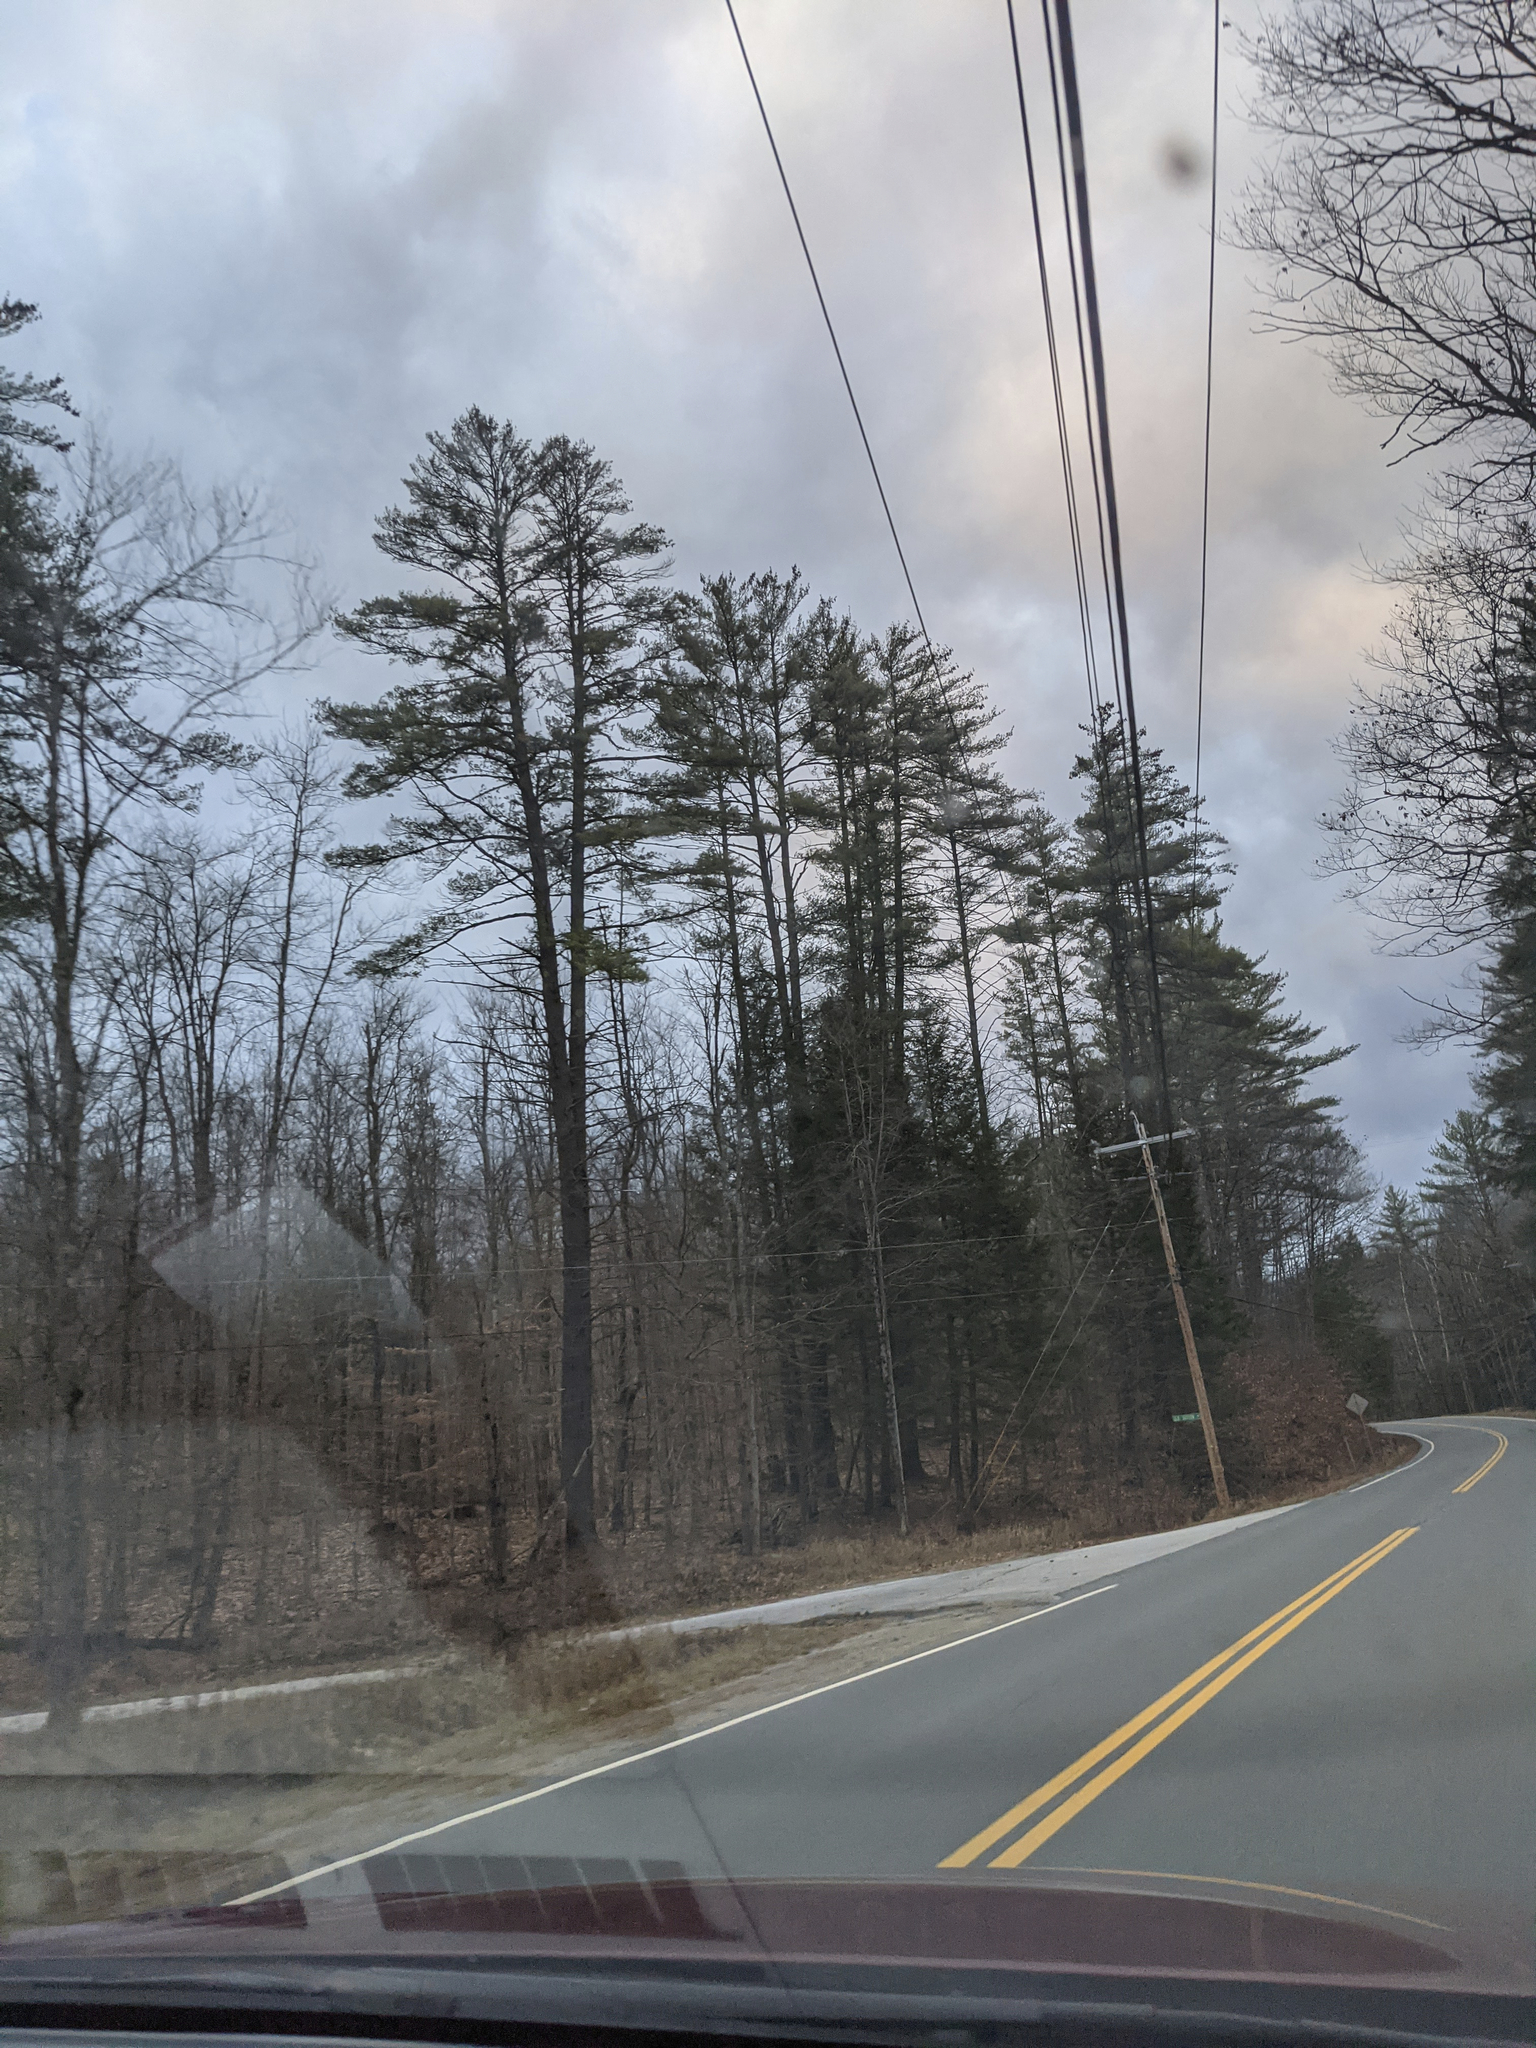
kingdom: Plantae
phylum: Tracheophyta
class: Pinopsida
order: Pinales
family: Pinaceae
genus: Pinus
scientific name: Pinus strobus
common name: Weymouth pine
